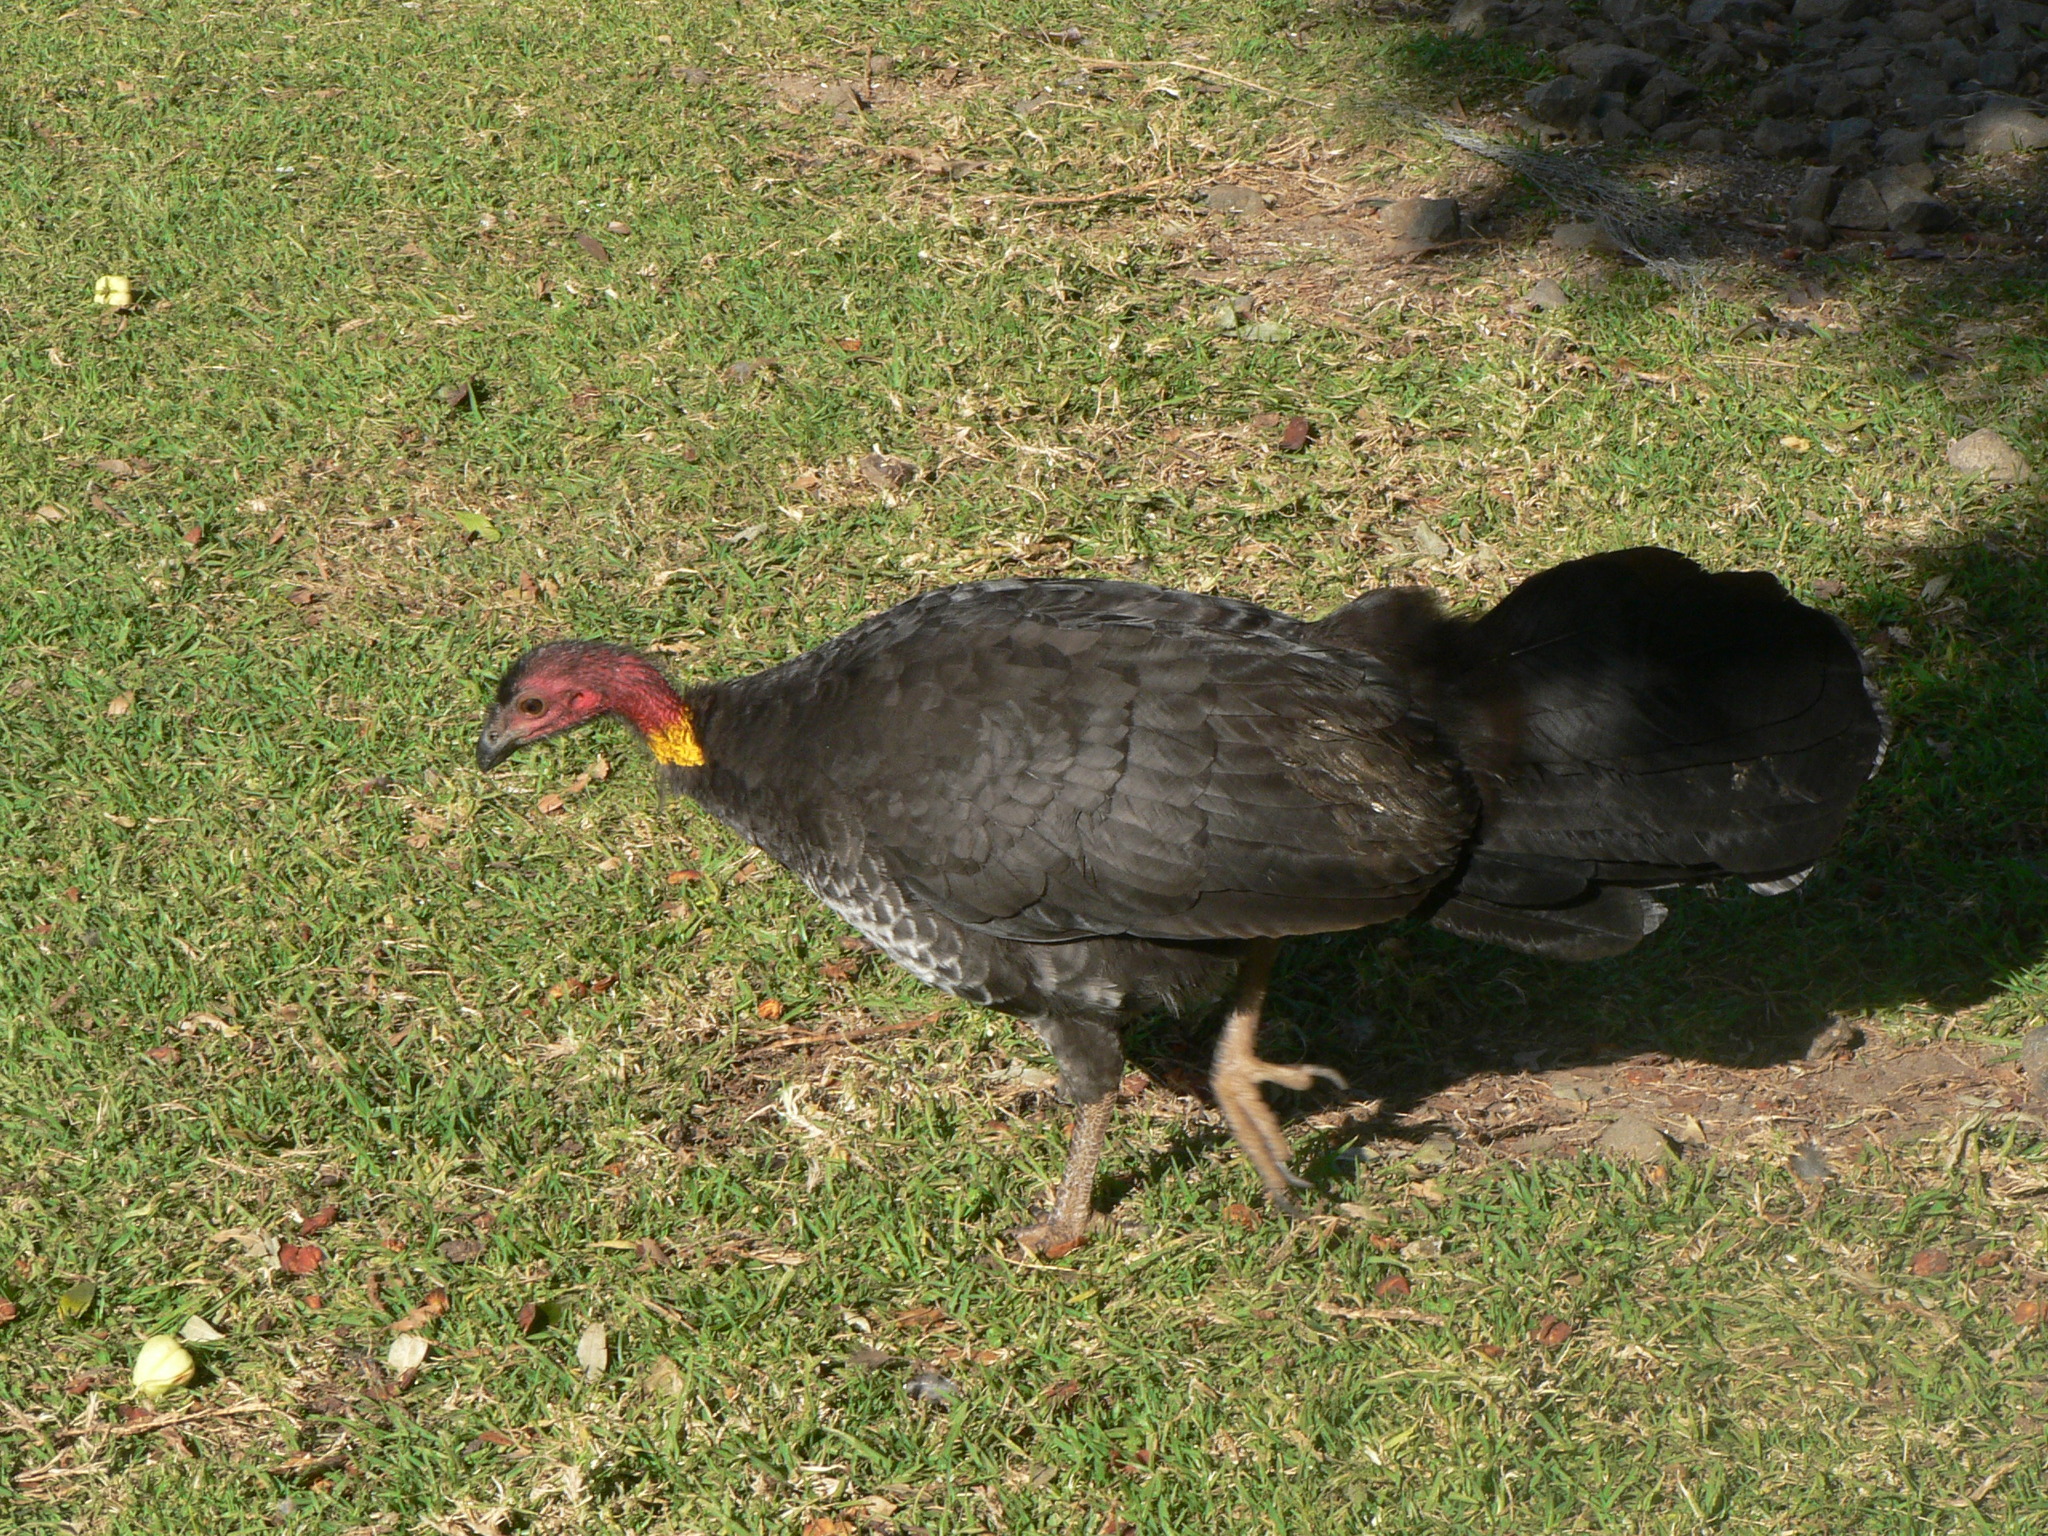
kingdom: Animalia
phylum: Chordata
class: Aves
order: Galliformes
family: Megapodiidae
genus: Alectura
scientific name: Alectura lathami
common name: Australian brushturkey
